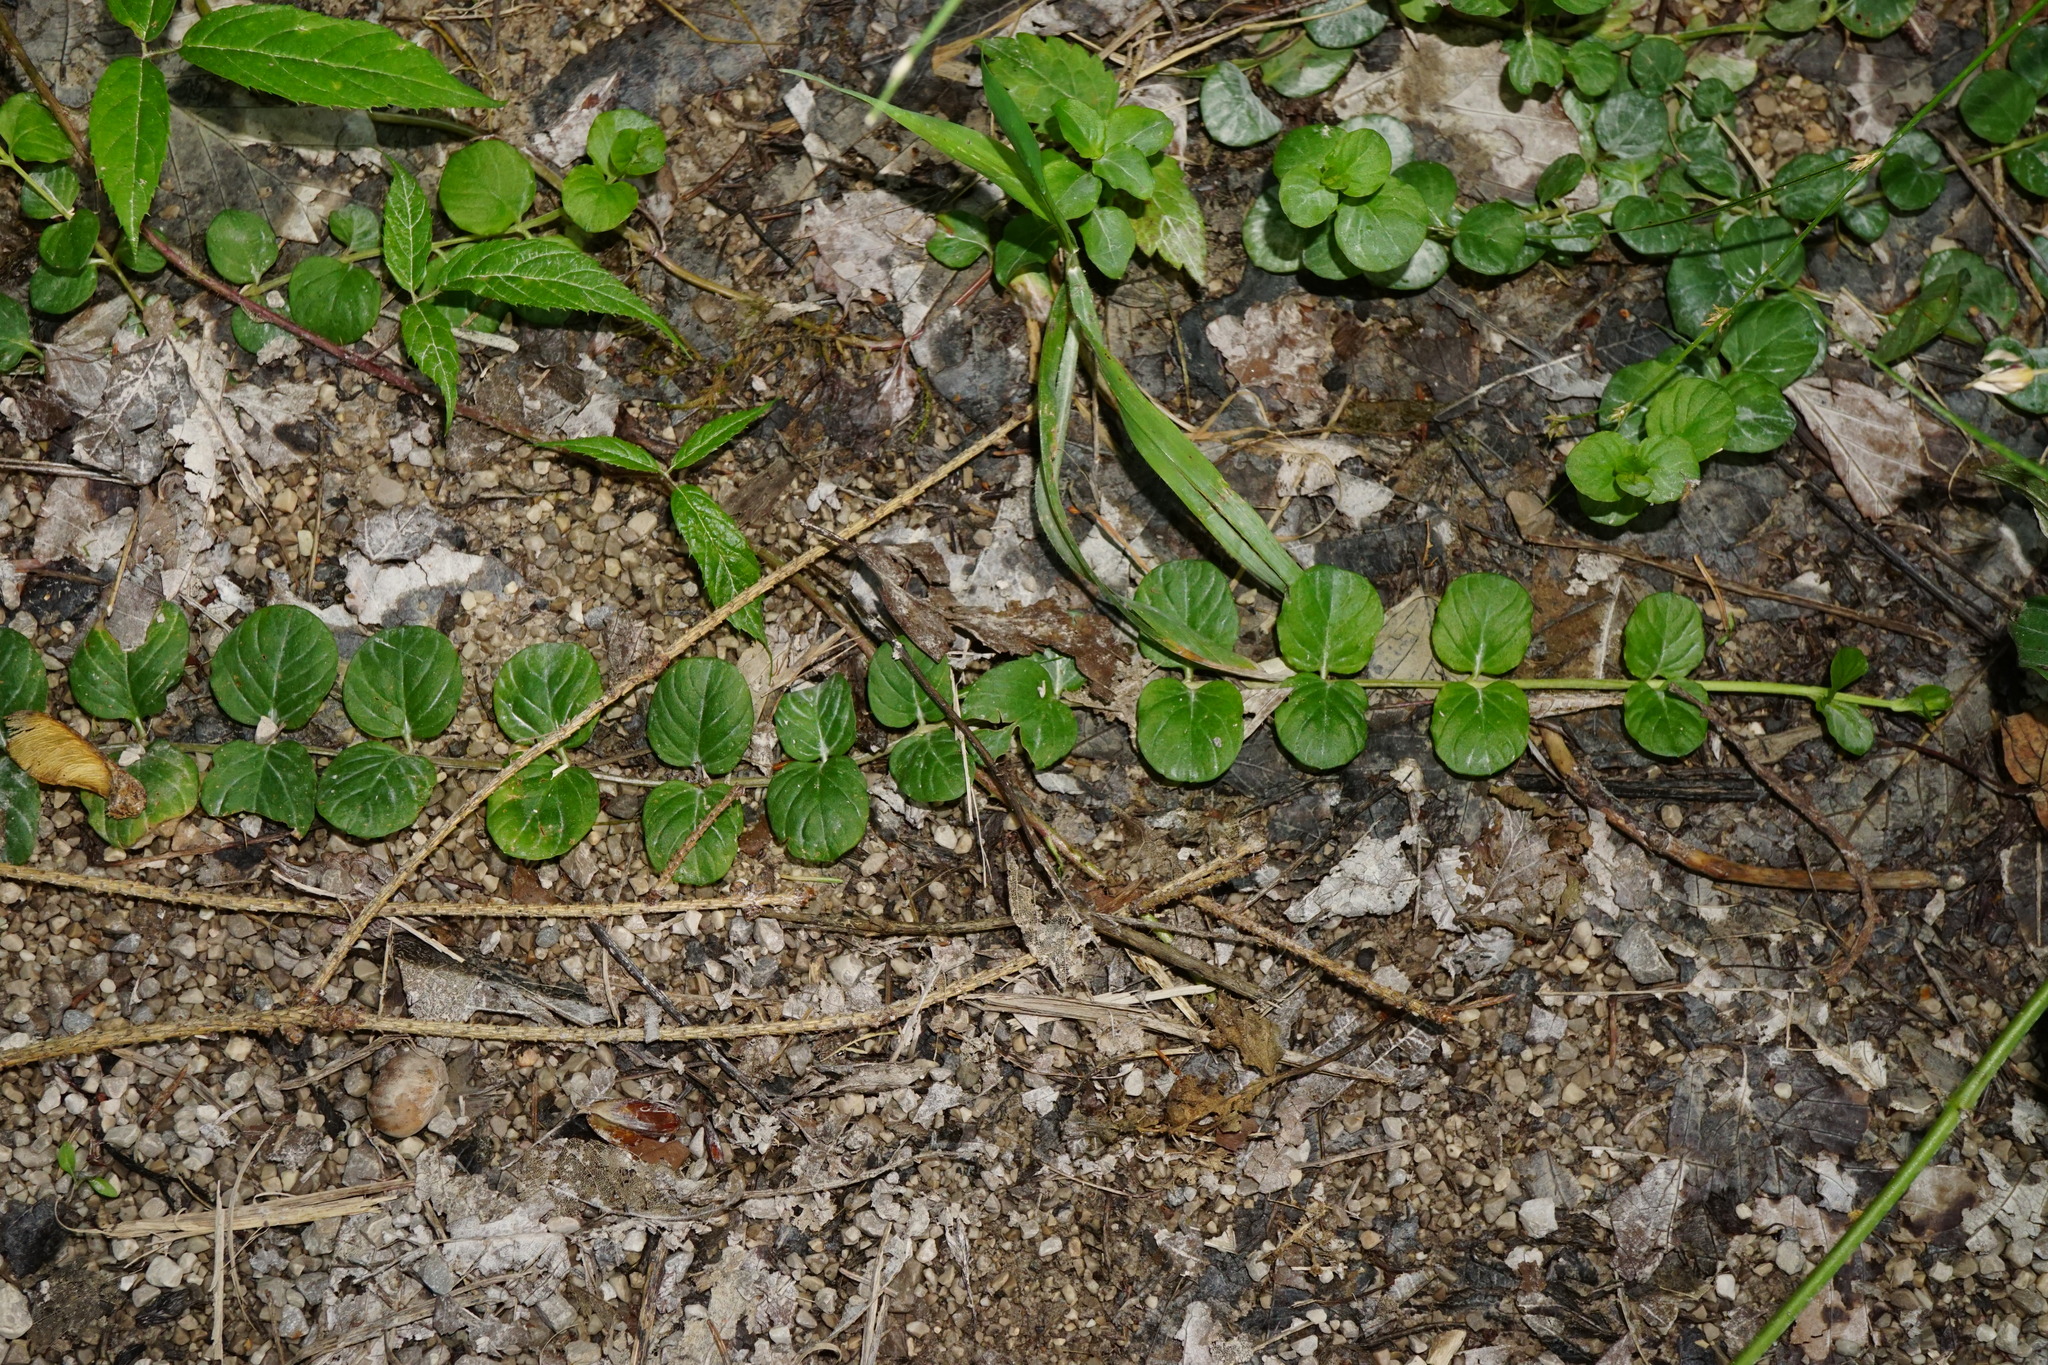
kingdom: Plantae
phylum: Tracheophyta
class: Magnoliopsida
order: Ericales
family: Primulaceae
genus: Lysimachia
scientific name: Lysimachia nummularia
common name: Moneywort
